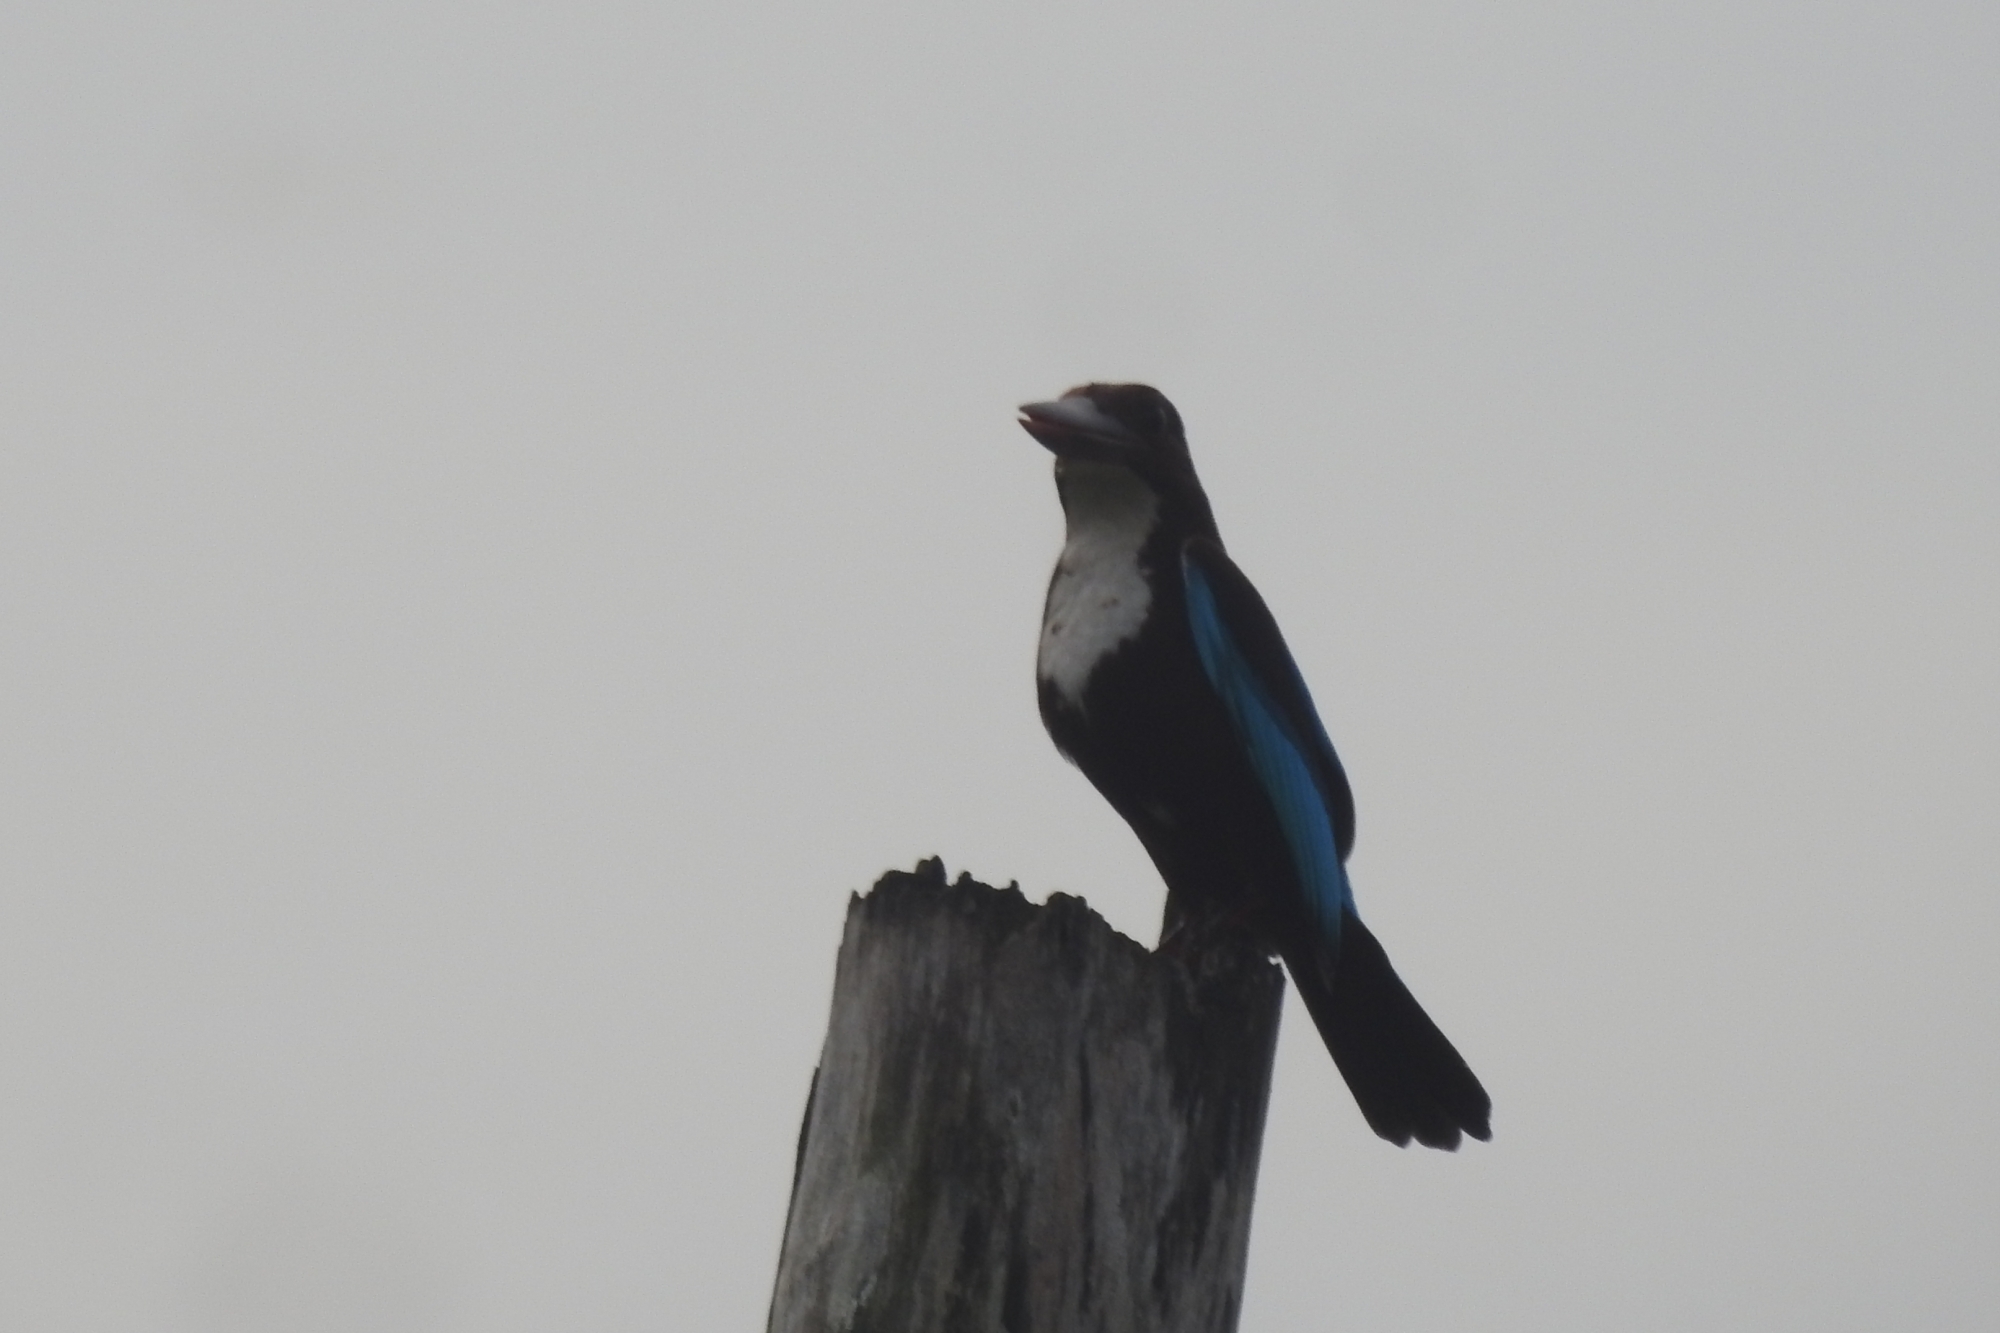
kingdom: Animalia
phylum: Chordata
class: Aves
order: Coraciiformes
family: Alcedinidae
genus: Halcyon
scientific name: Halcyon smyrnensis
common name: White-throated kingfisher
